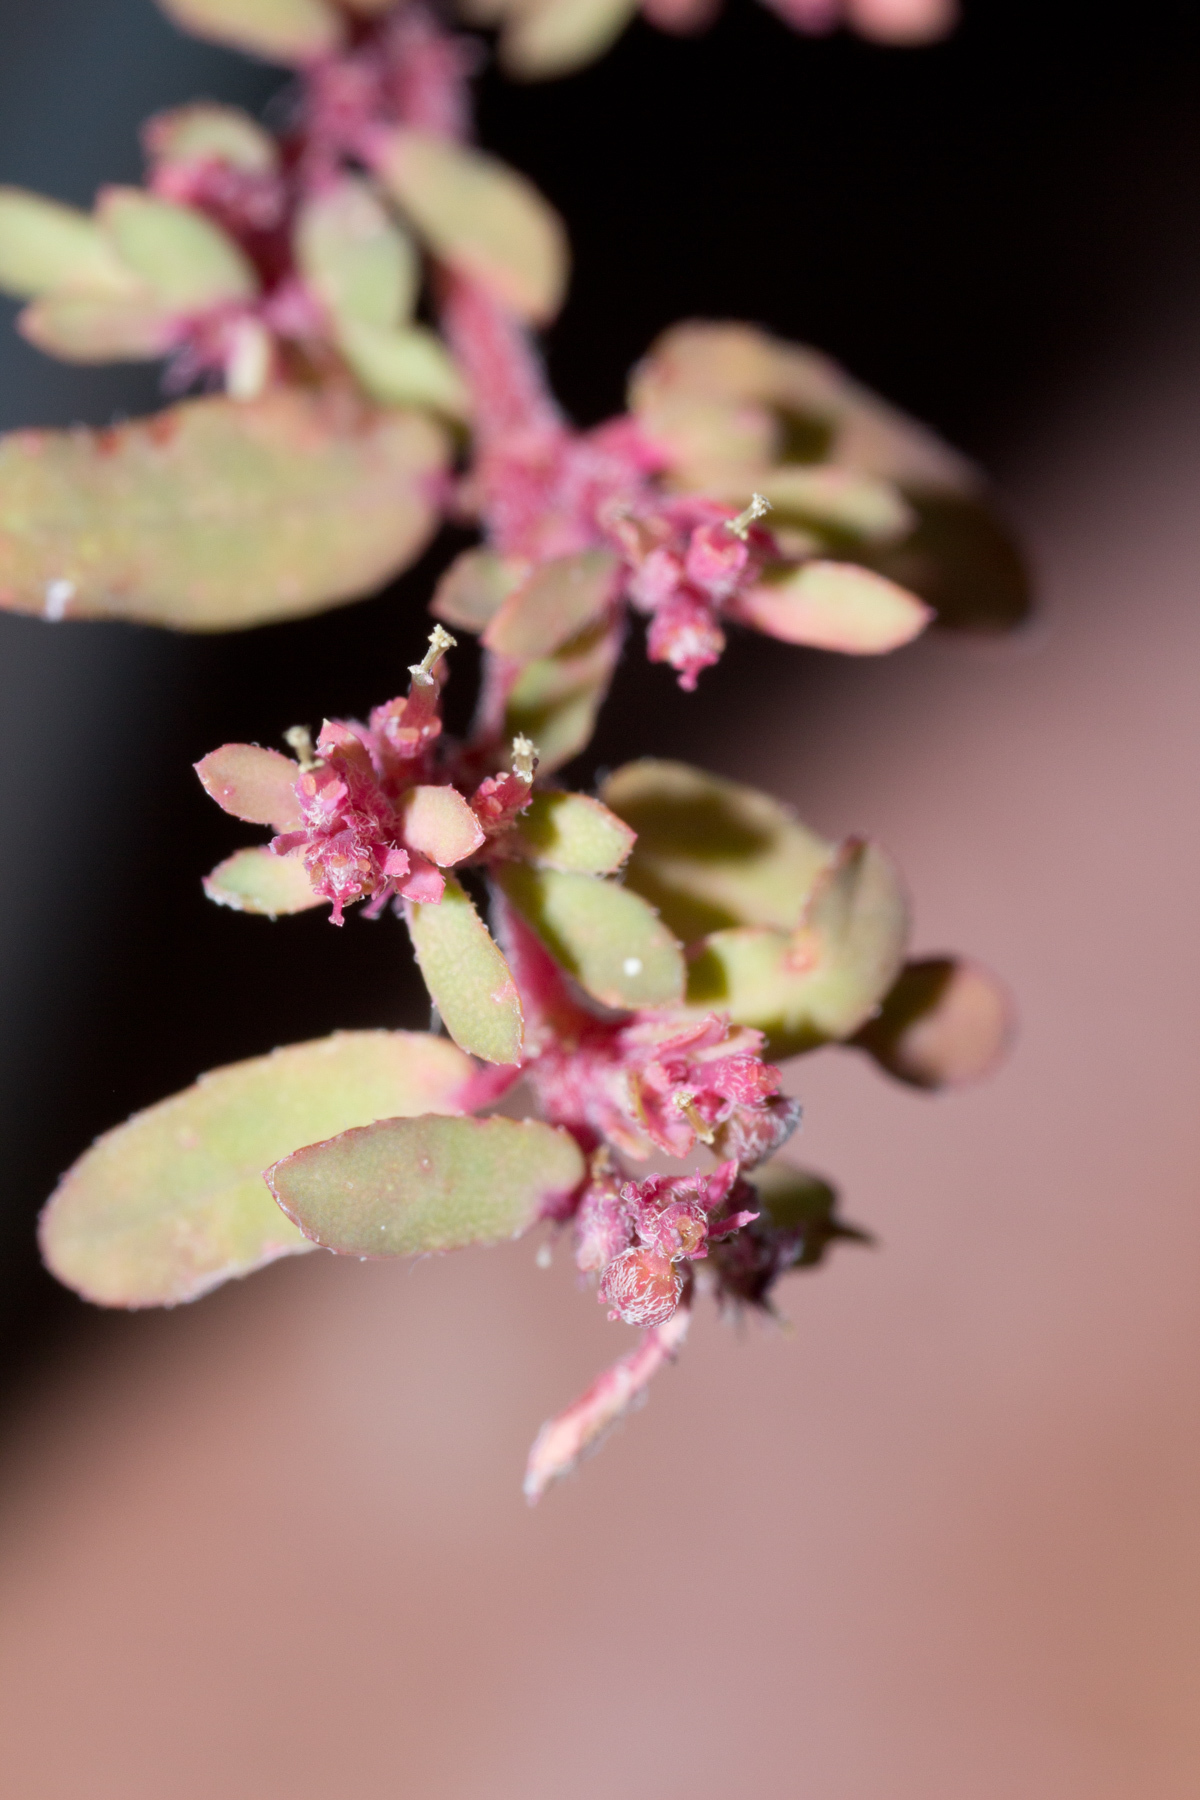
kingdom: Plantae
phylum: Tracheophyta
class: Magnoliopsida
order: Malpighiales
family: Euphorbiaceae
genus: Euphorbia
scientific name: Euphorbia maculata
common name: Spotted spurge
